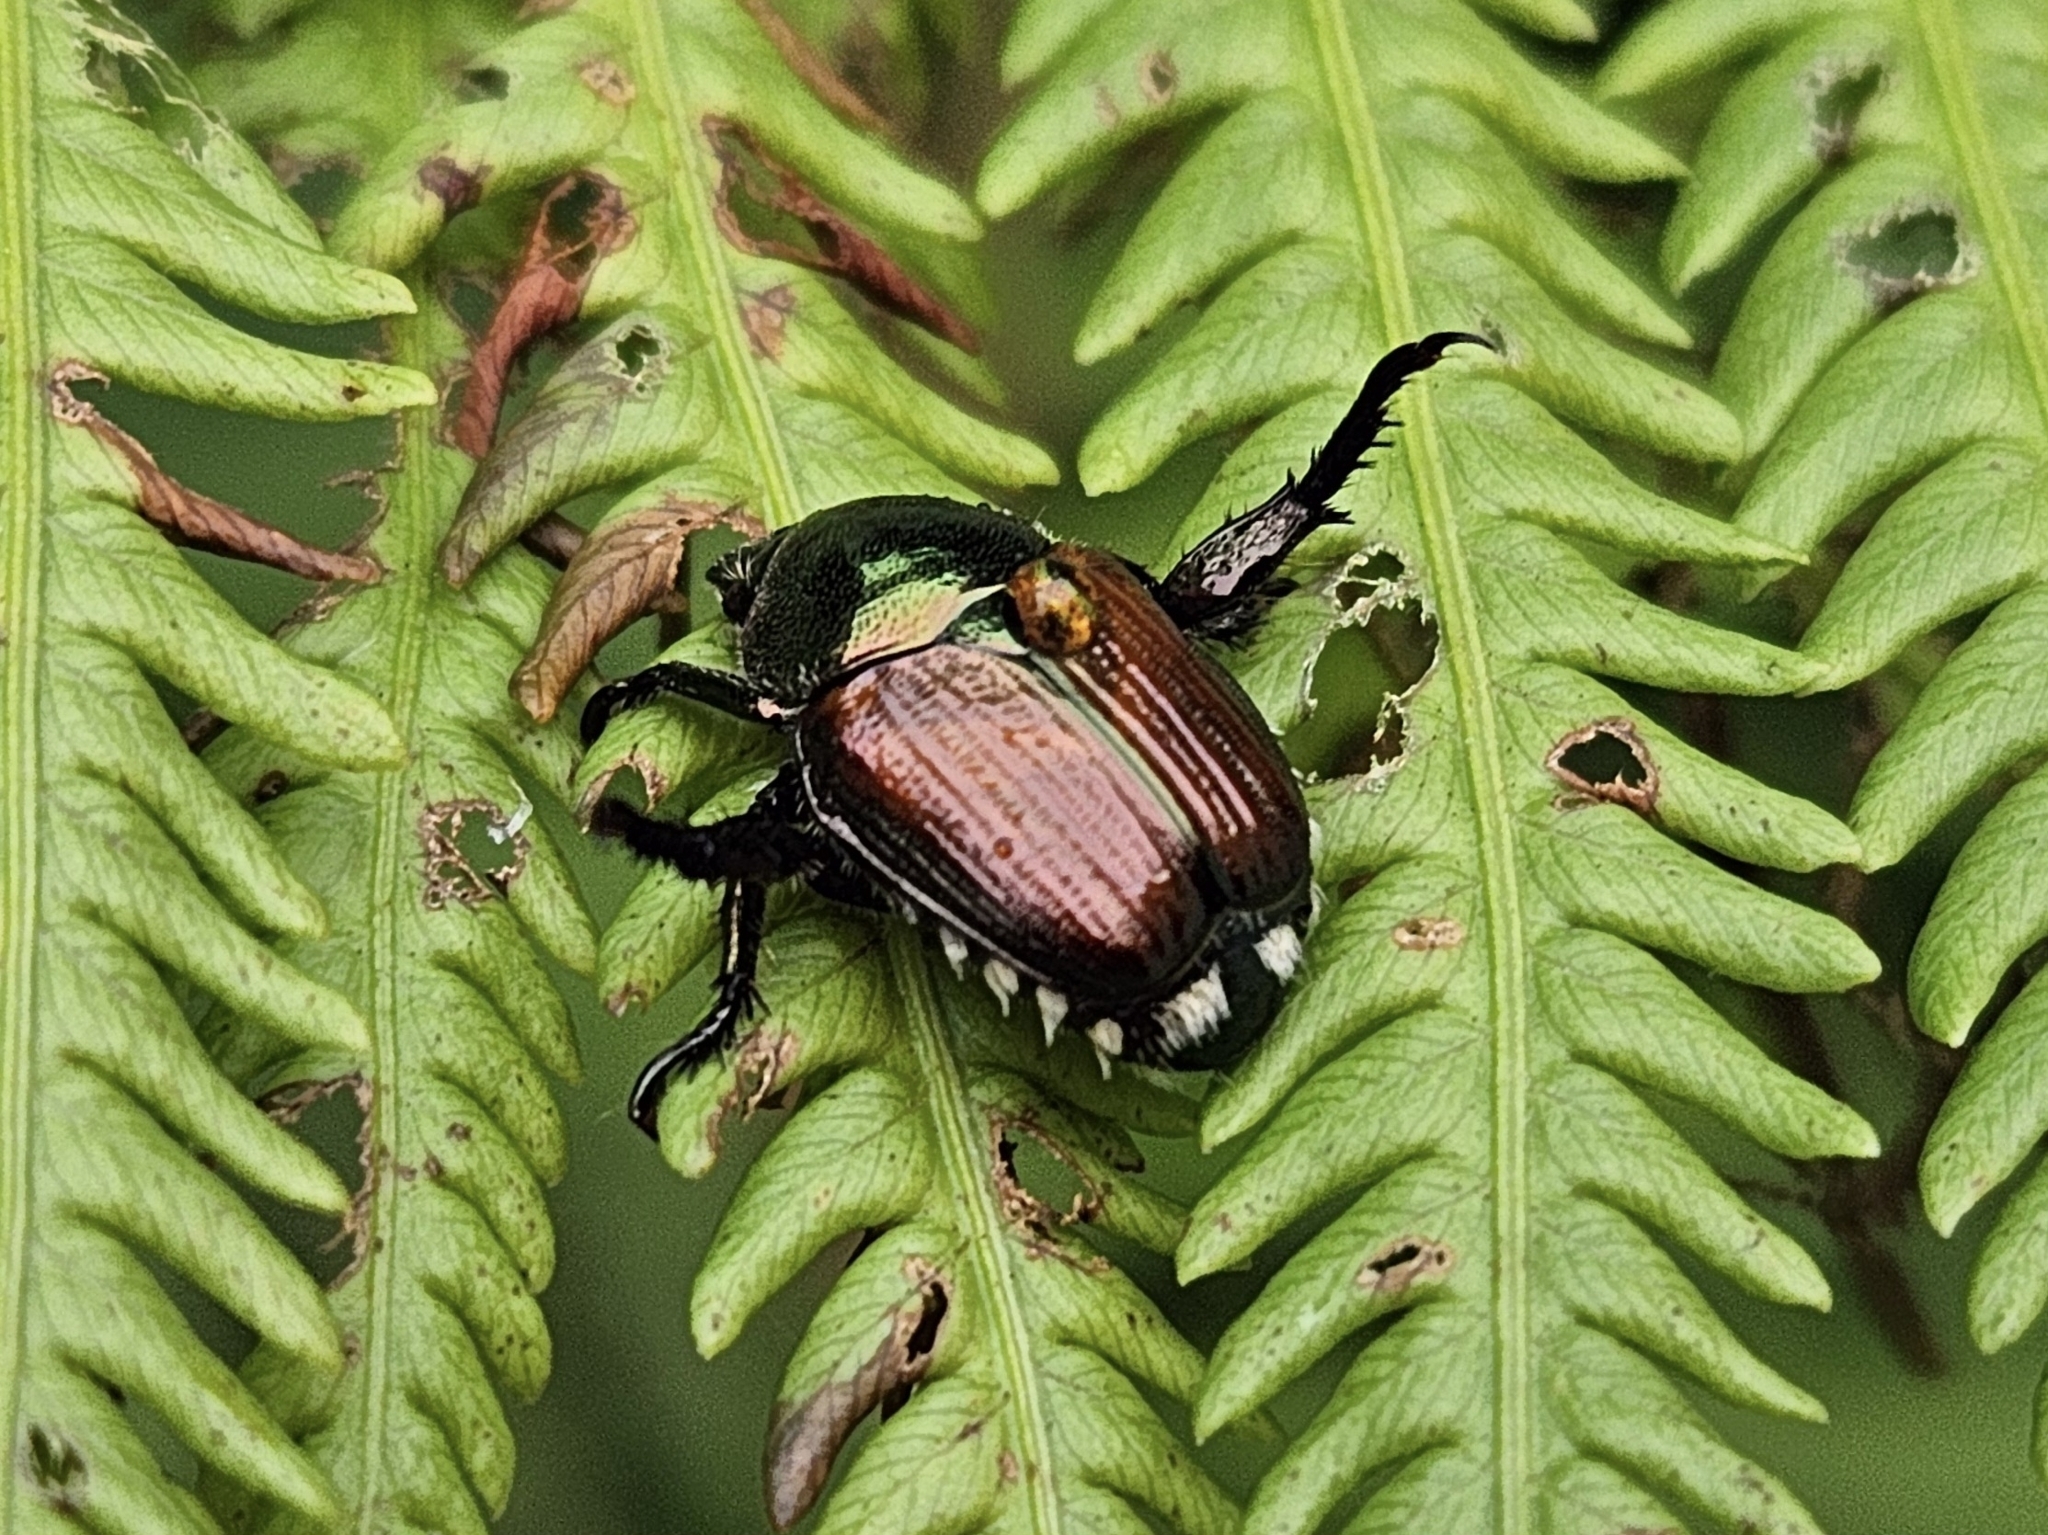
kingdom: Animalia
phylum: Arthropoda
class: Insecta
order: Coleoptera
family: Scarabaeidae
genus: Popillia
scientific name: Popillia japonica
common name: Japanese beetle
